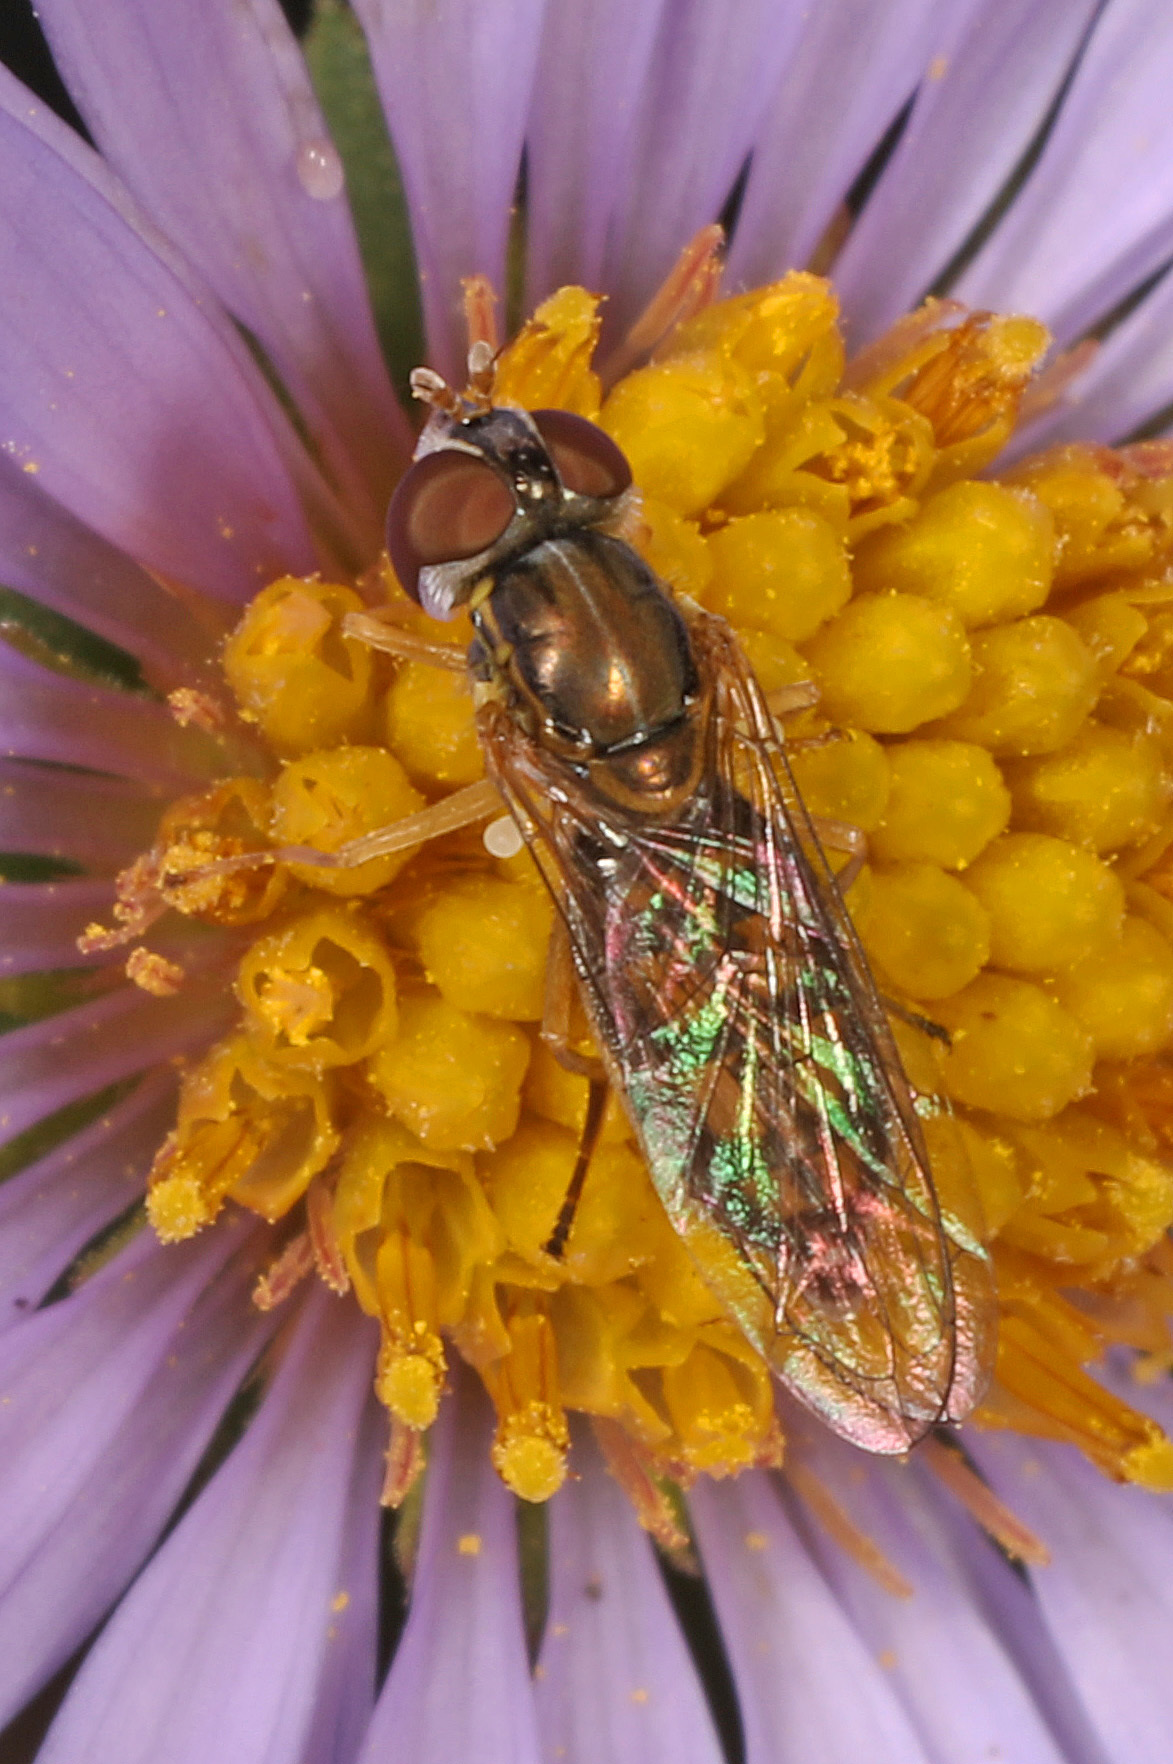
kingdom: Animalia
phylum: Arthropoda
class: Insecta
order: Diptera
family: Syrphidae
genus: Toxomerus
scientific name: Toxomerus marginatus
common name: Syrphid fly
